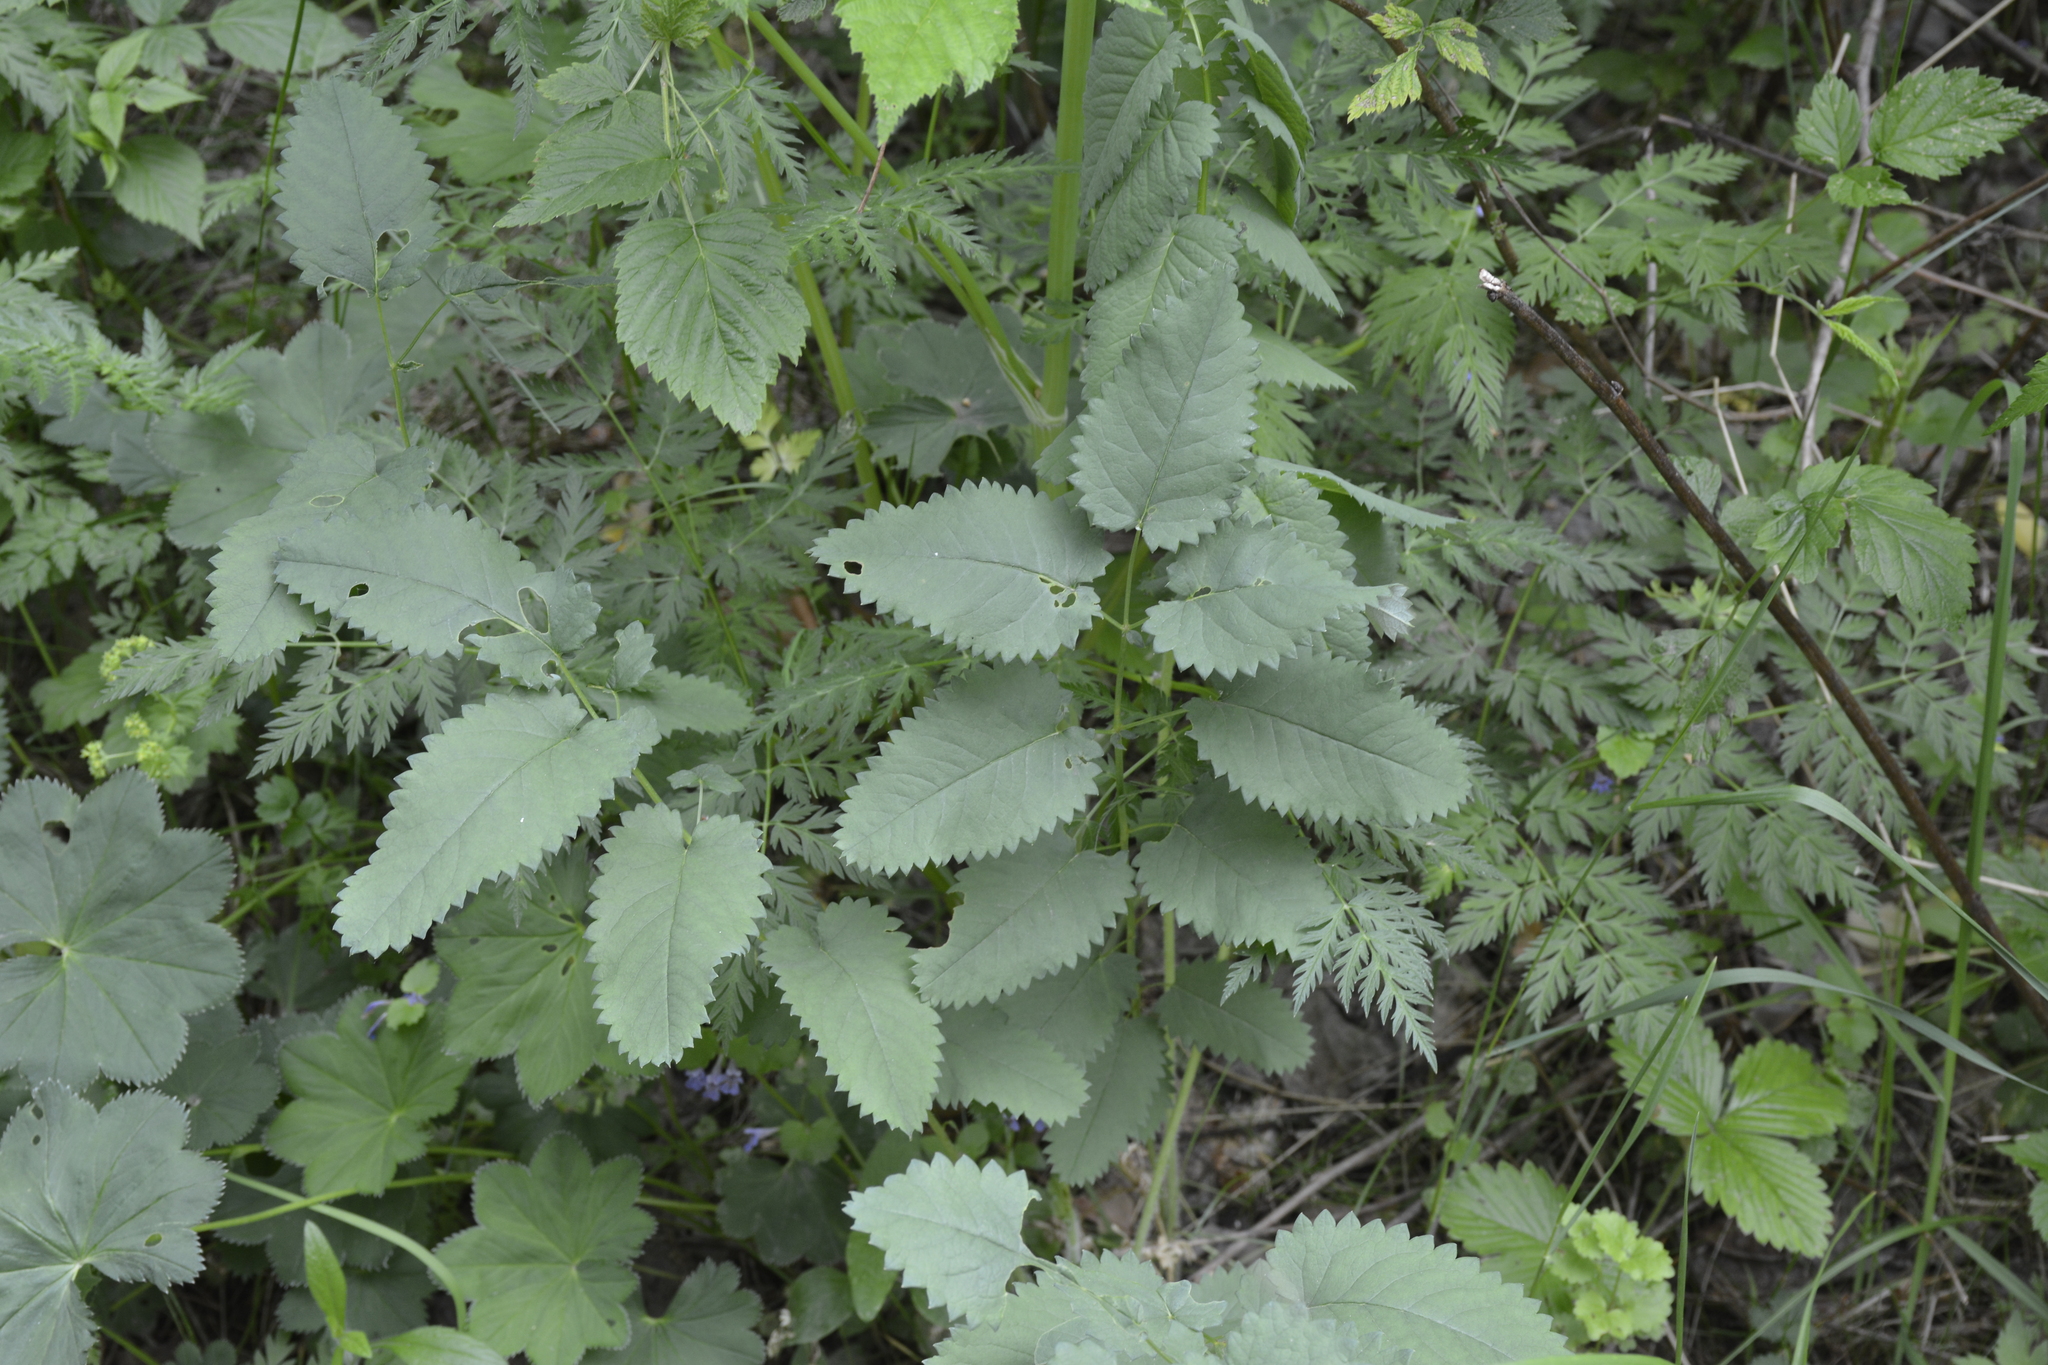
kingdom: Plantae
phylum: Tracheophyta
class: Magnoliopsida
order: Rosales
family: Rosaceae
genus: Sanguisorba
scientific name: Sanguisorba officinalis
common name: Great burnet
